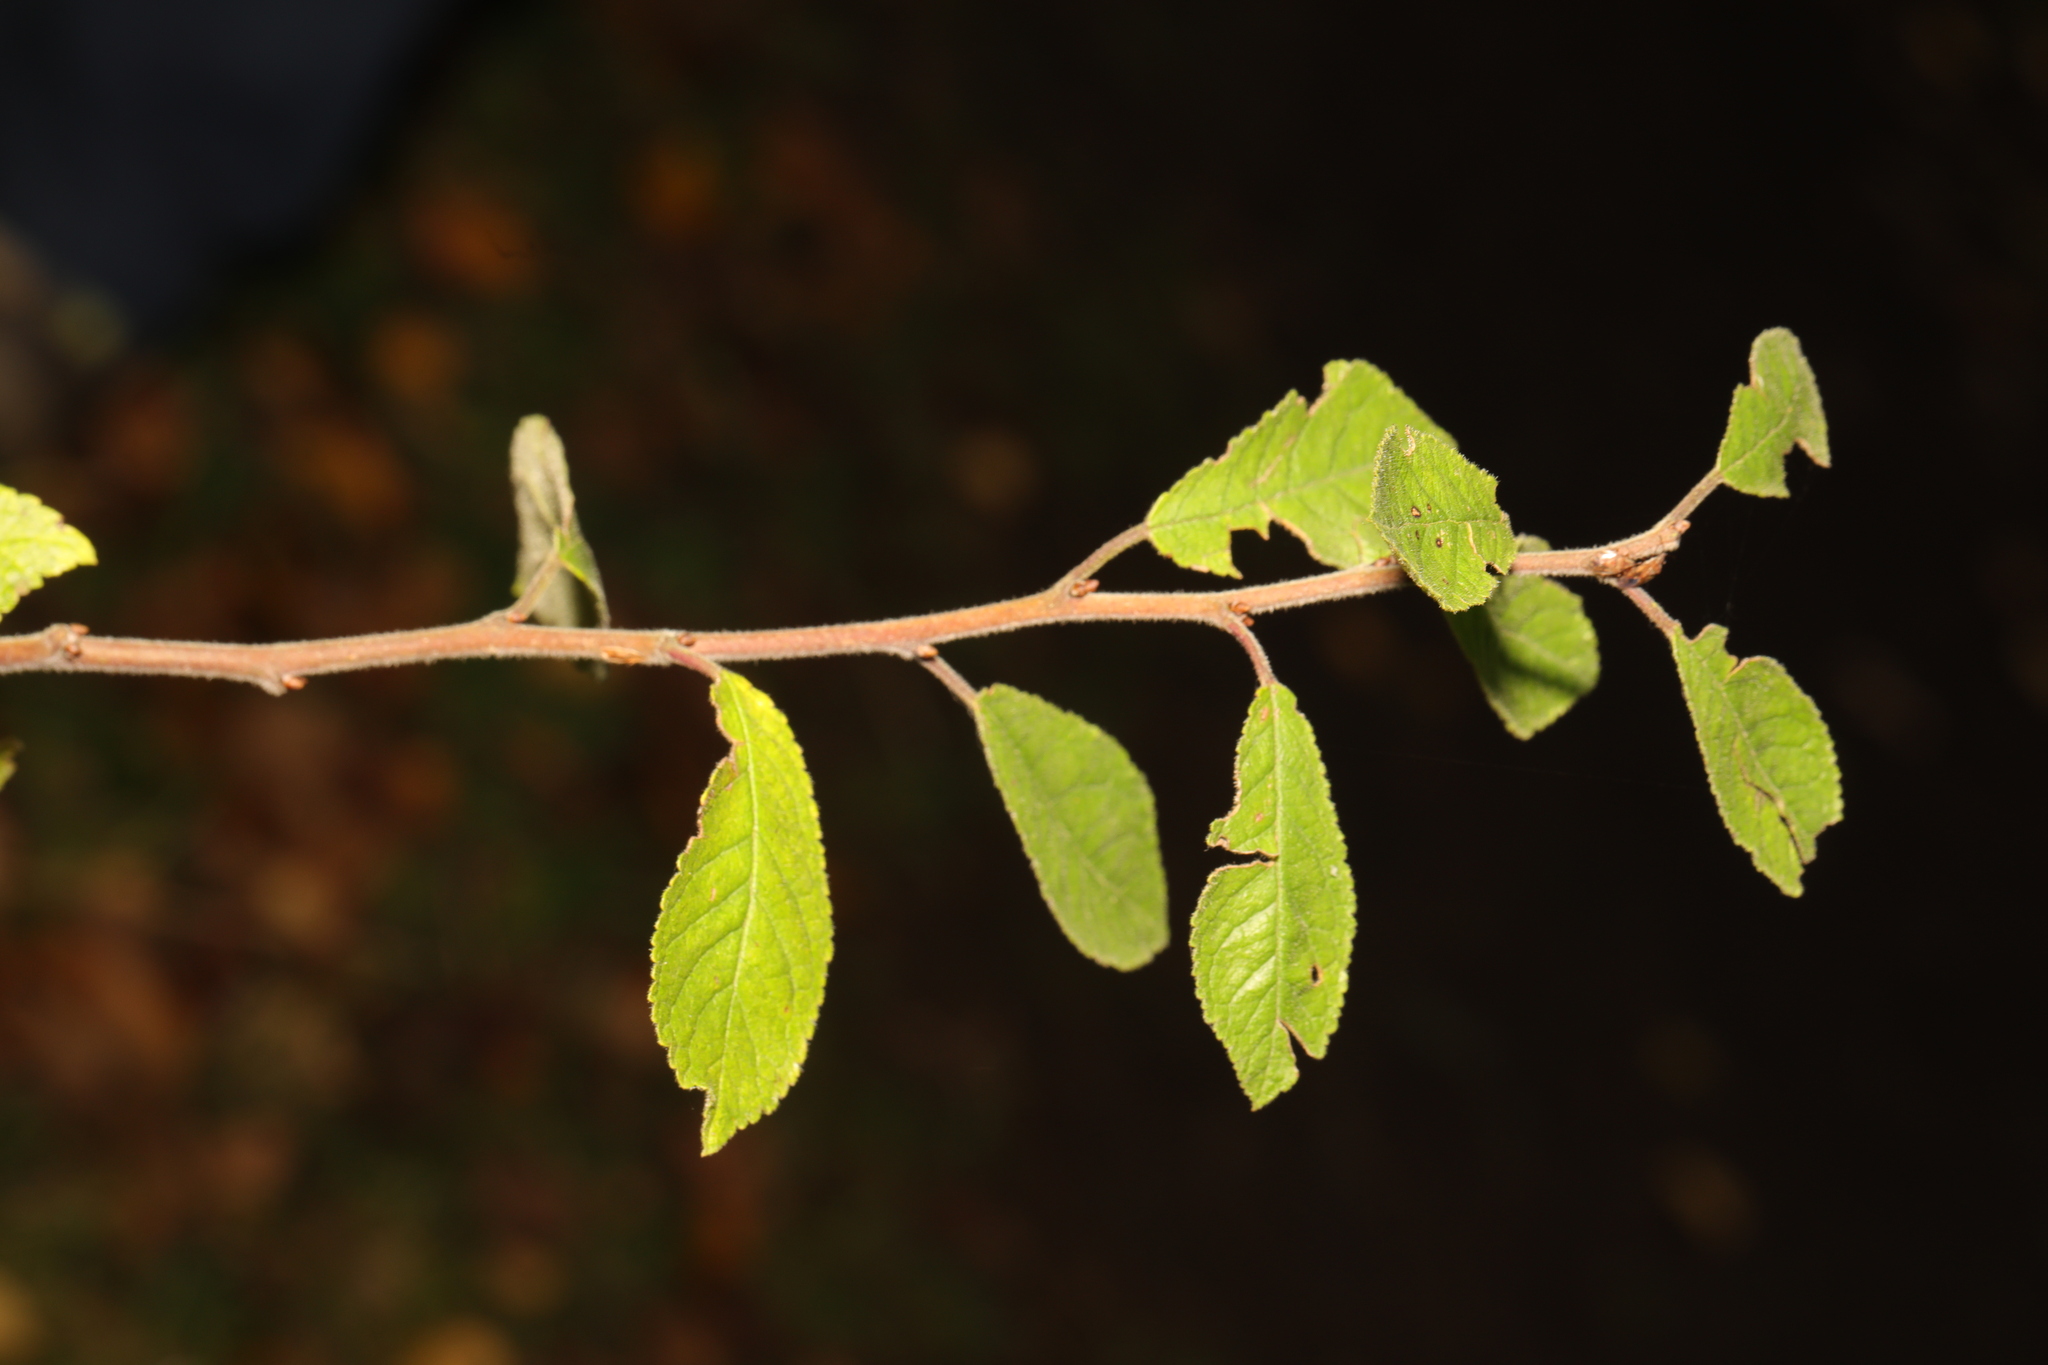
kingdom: Plantae
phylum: Tracheophyta
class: Magnoliopsida
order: Rosales
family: Rosaceae
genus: Prunus
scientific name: Prunus spinosa
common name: Blackthorn
